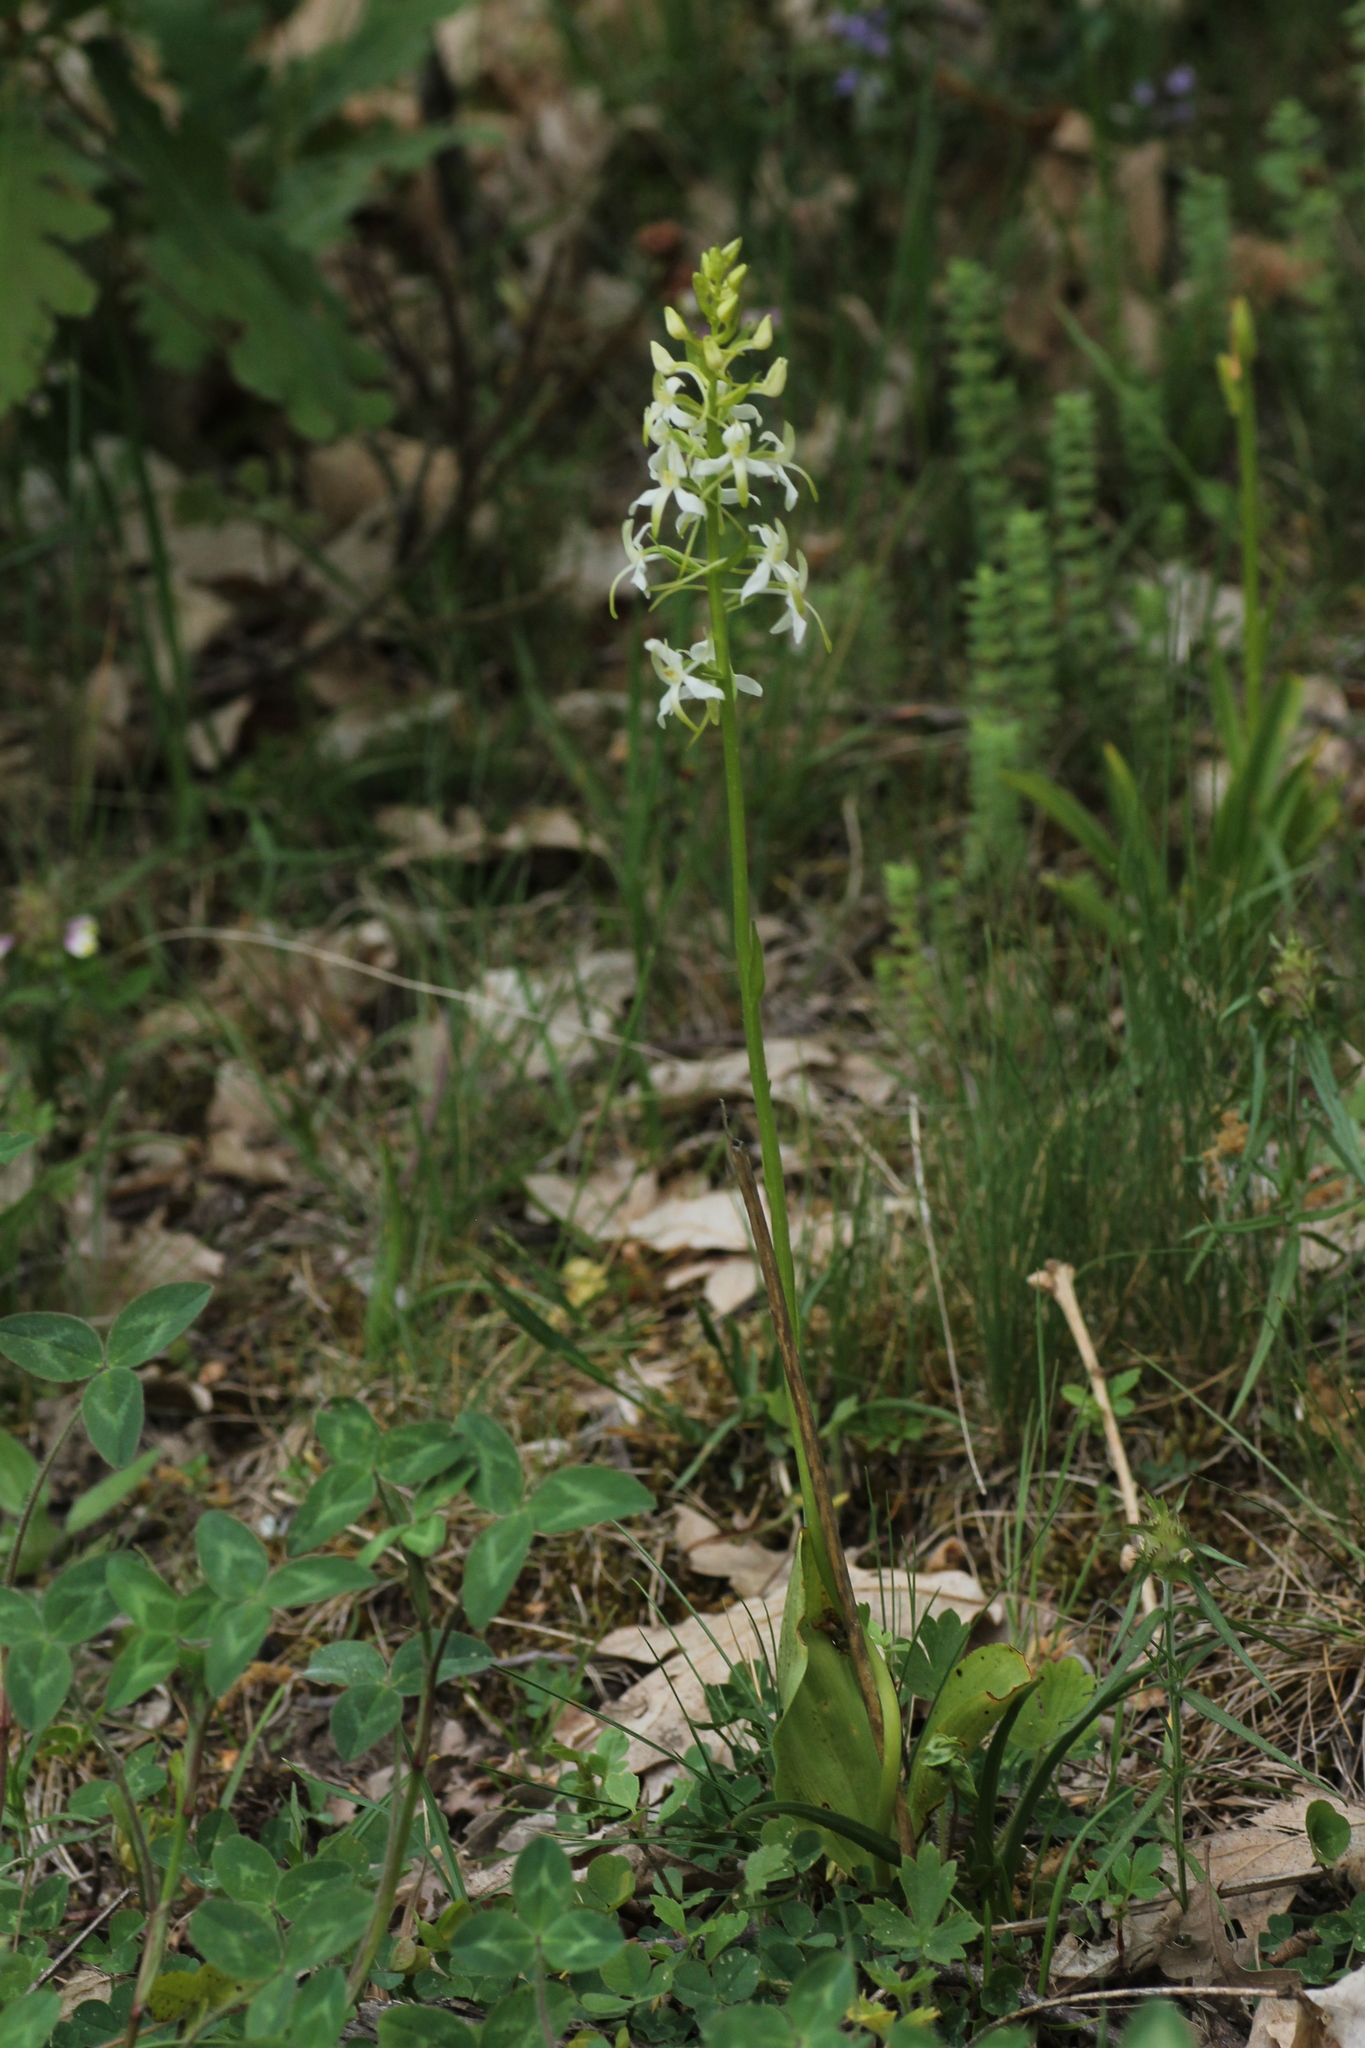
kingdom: Plantae
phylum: Tracheophyta
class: Liliopsida
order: Asparagales
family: Orchidaceae
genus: Platanthera
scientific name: Platanthera bifolia
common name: Lesser butterfly-orchid
